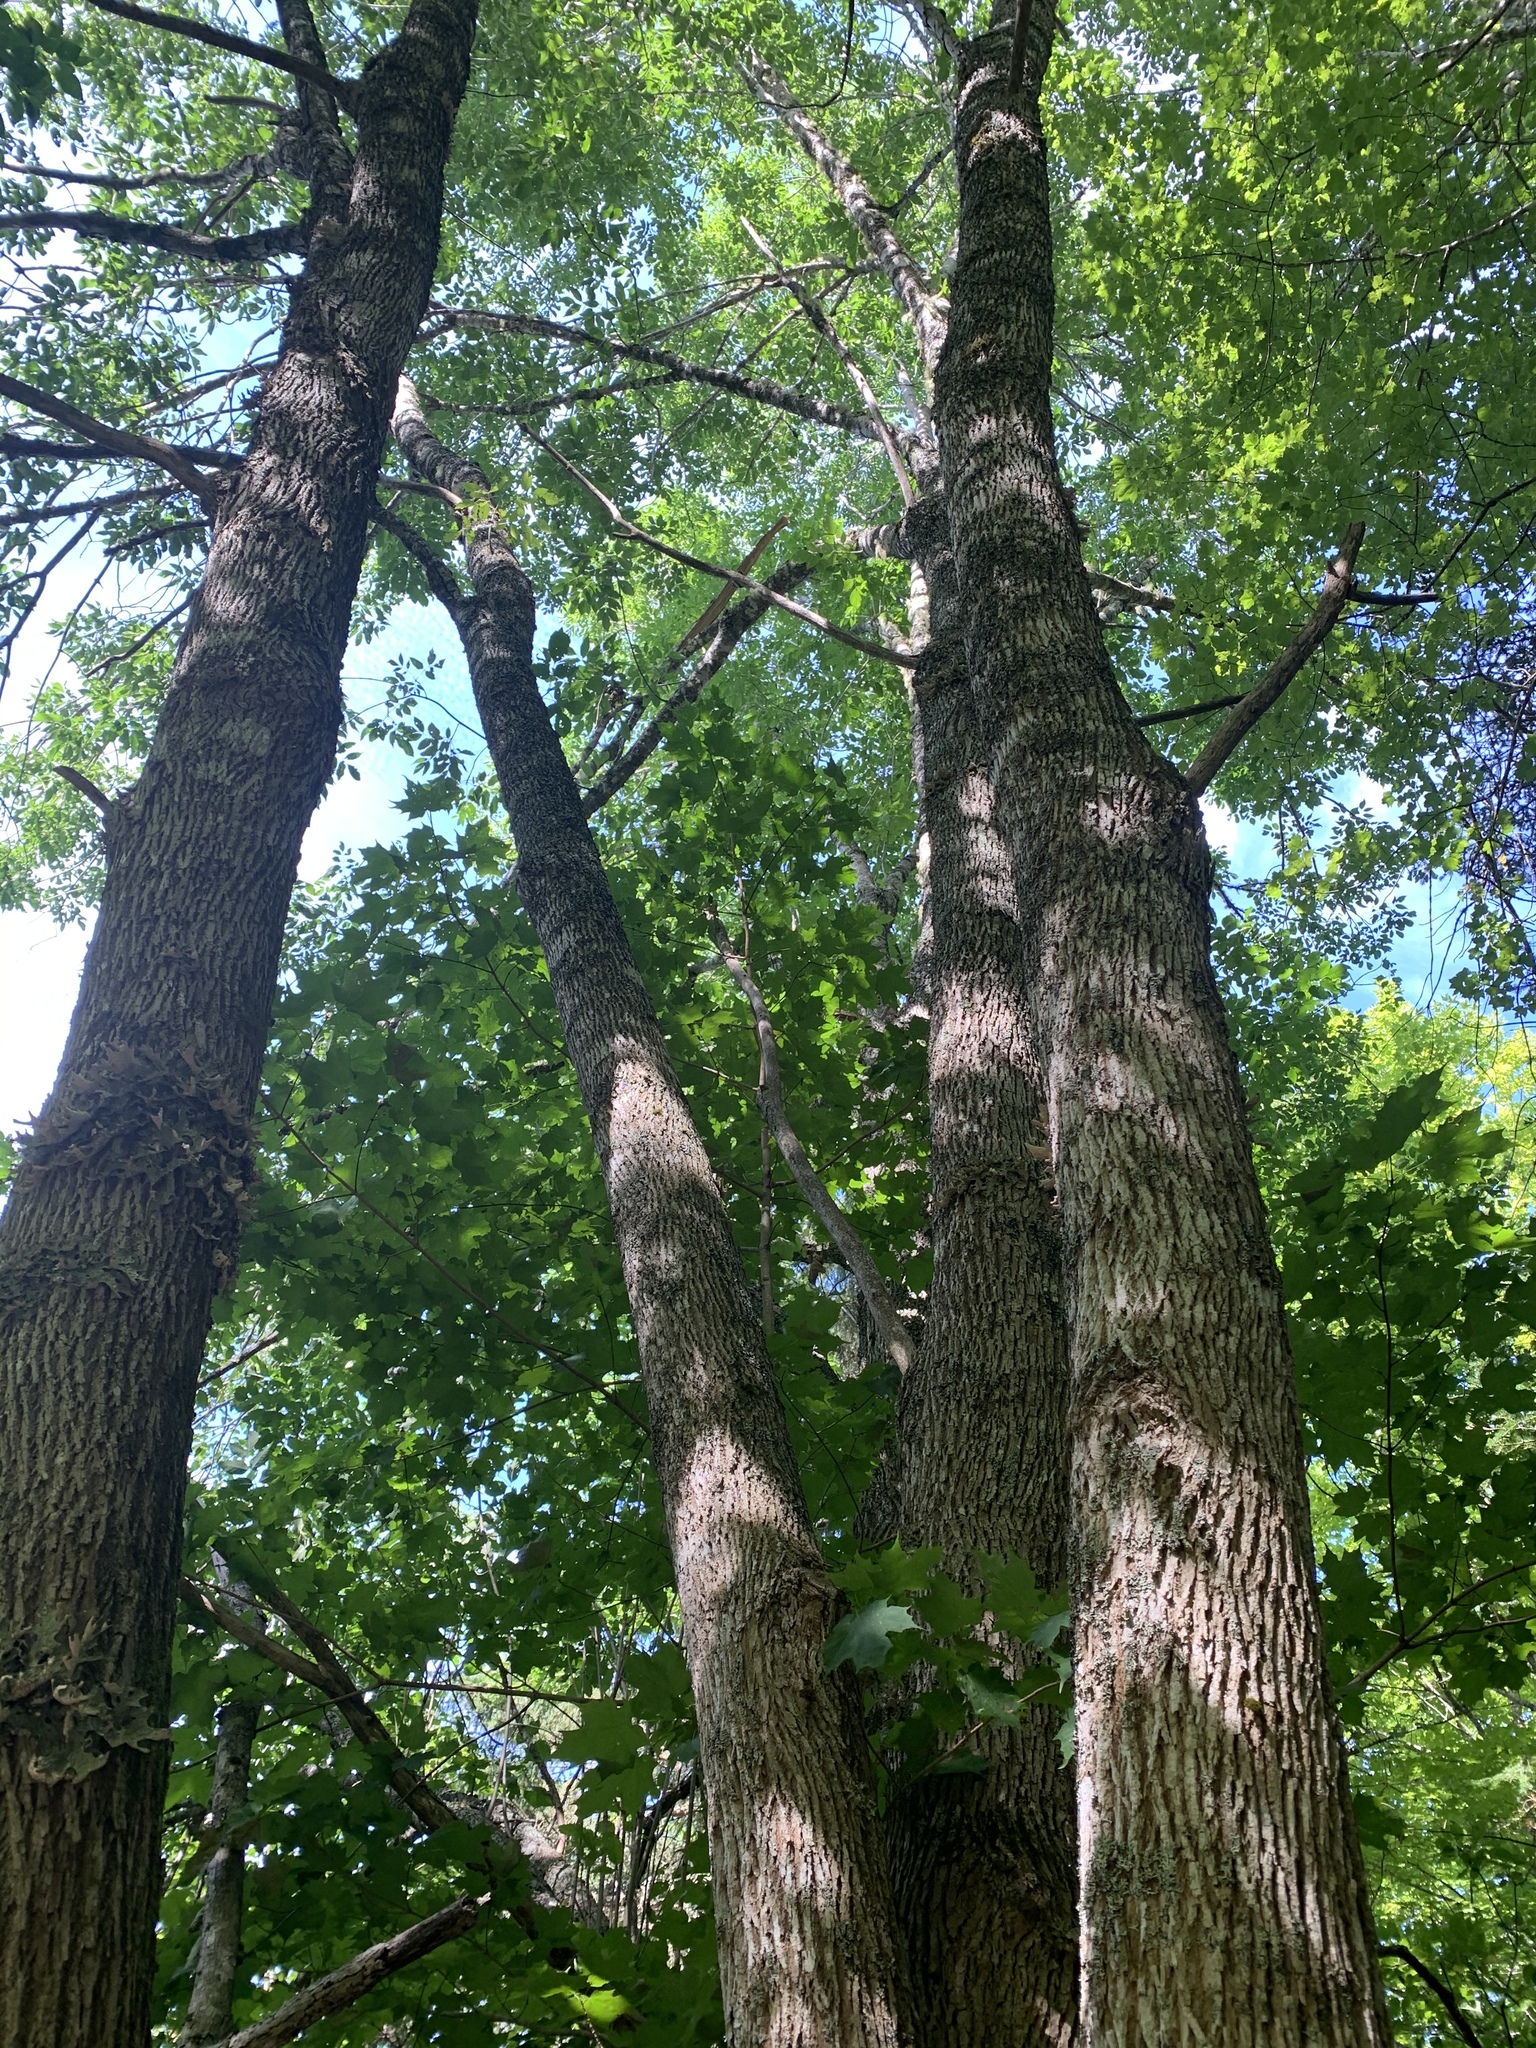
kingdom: Plantae
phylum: Tracheophyta
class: Magnoliopsida
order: Lamiales
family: Oleaceae
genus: Fraxinus
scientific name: Fraxinus americana
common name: White ash
